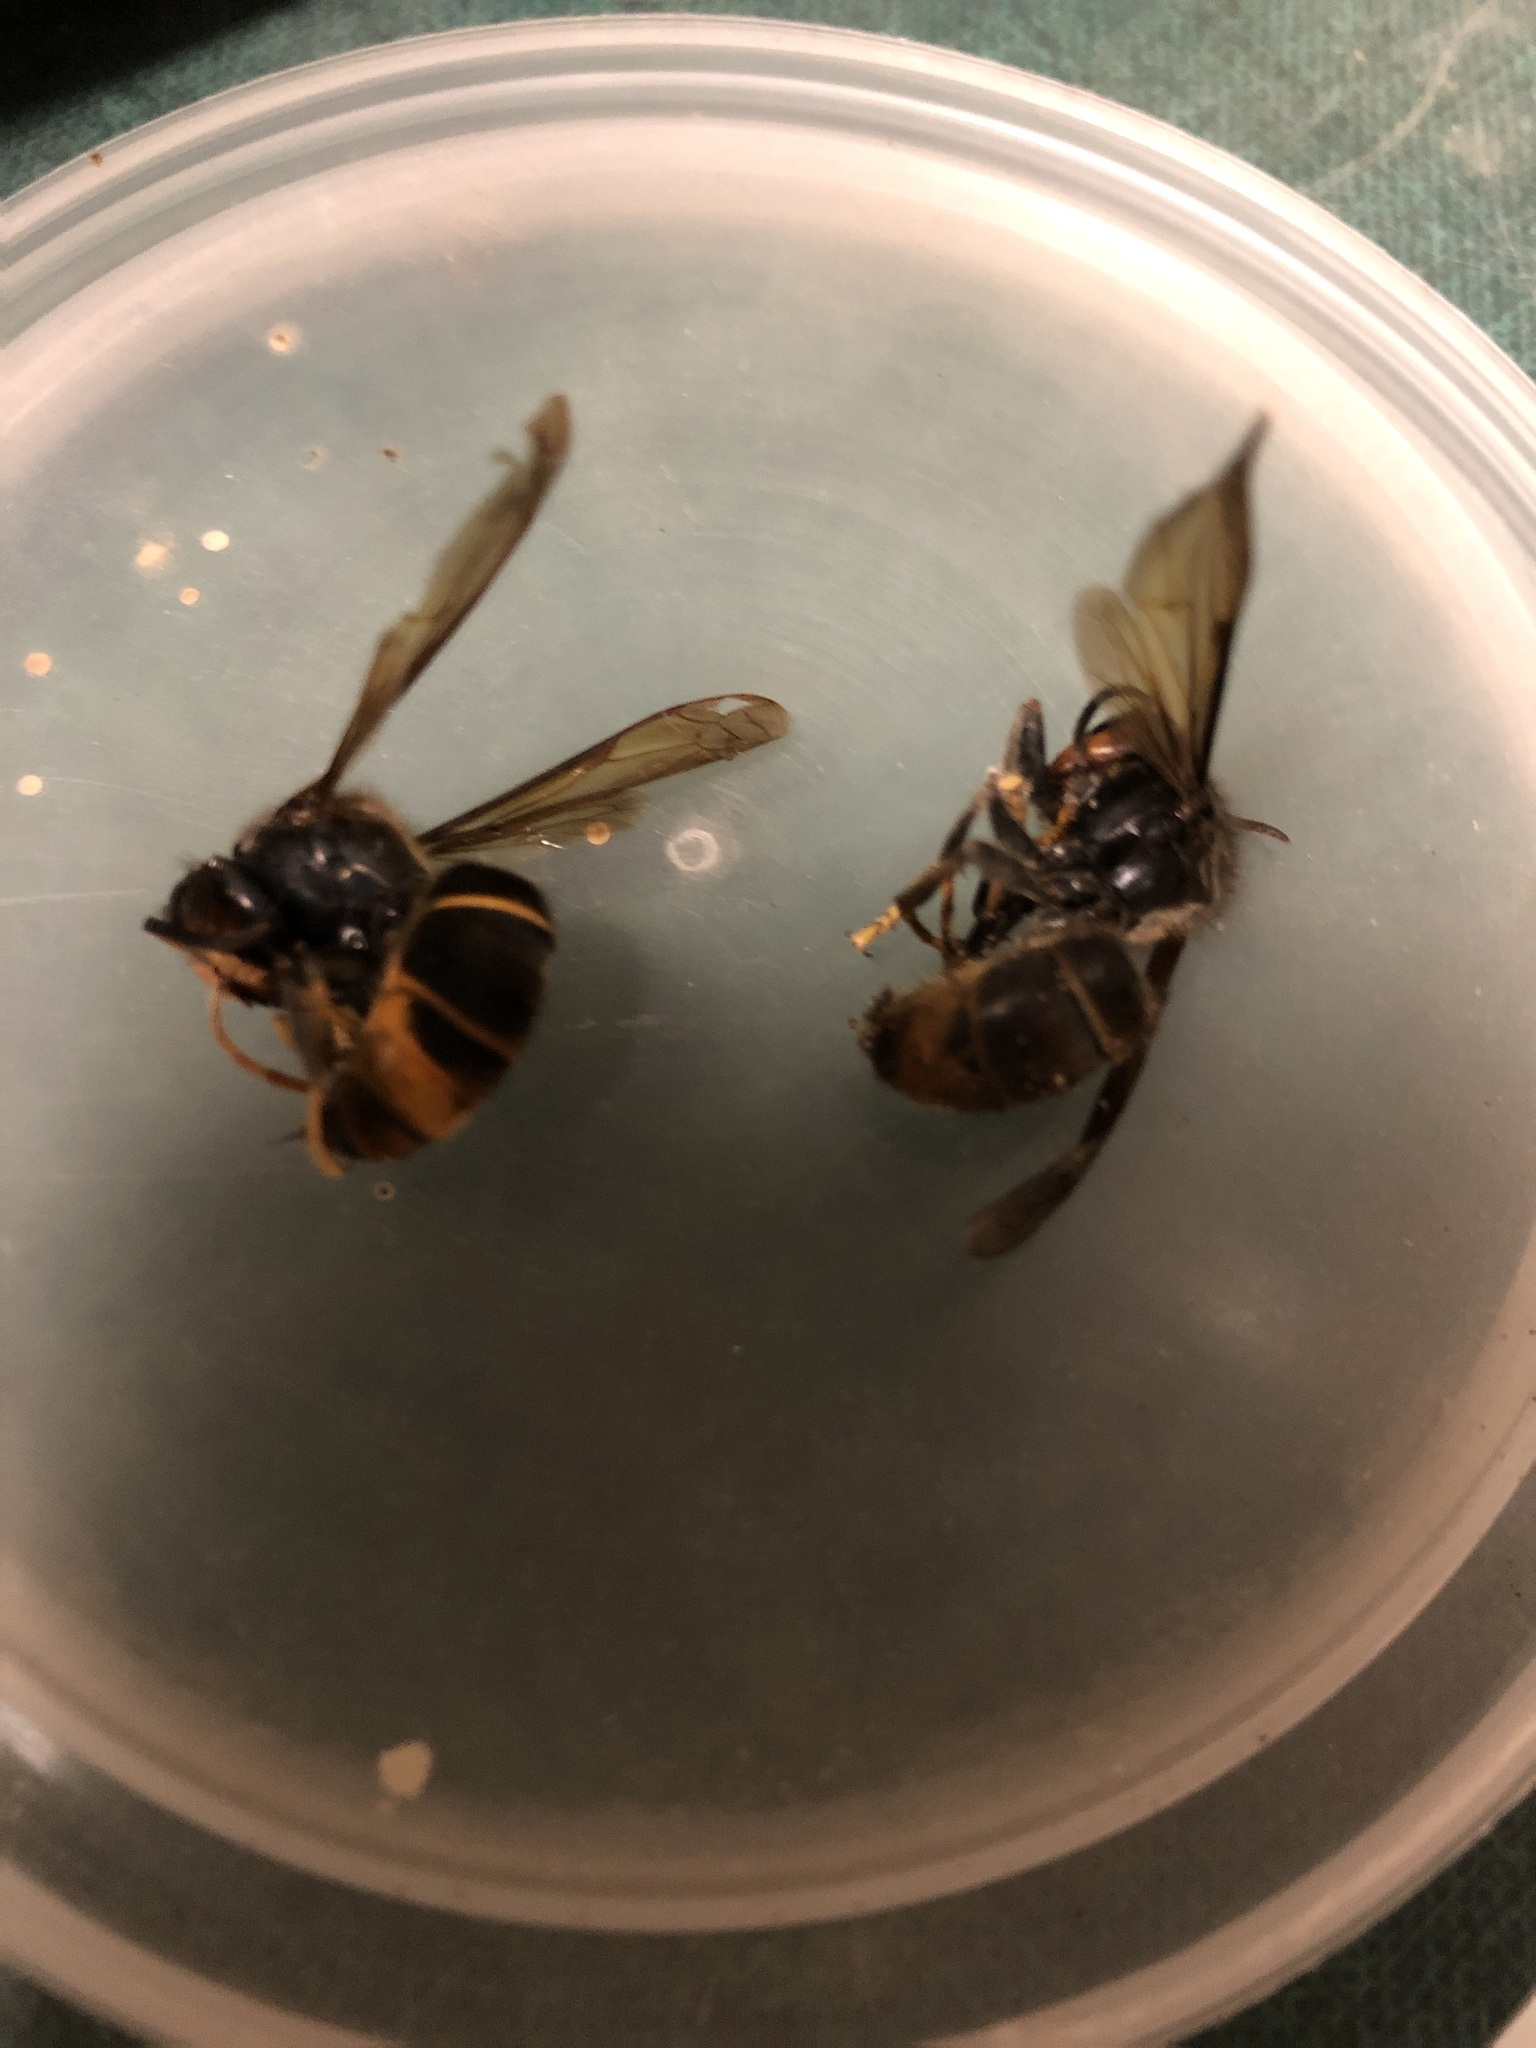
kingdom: Animalia
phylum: Arthropoda
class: Insecta
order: Hymenoptera
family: Vespidae
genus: Vespa
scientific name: Vespa velutina
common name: Asian hornet
